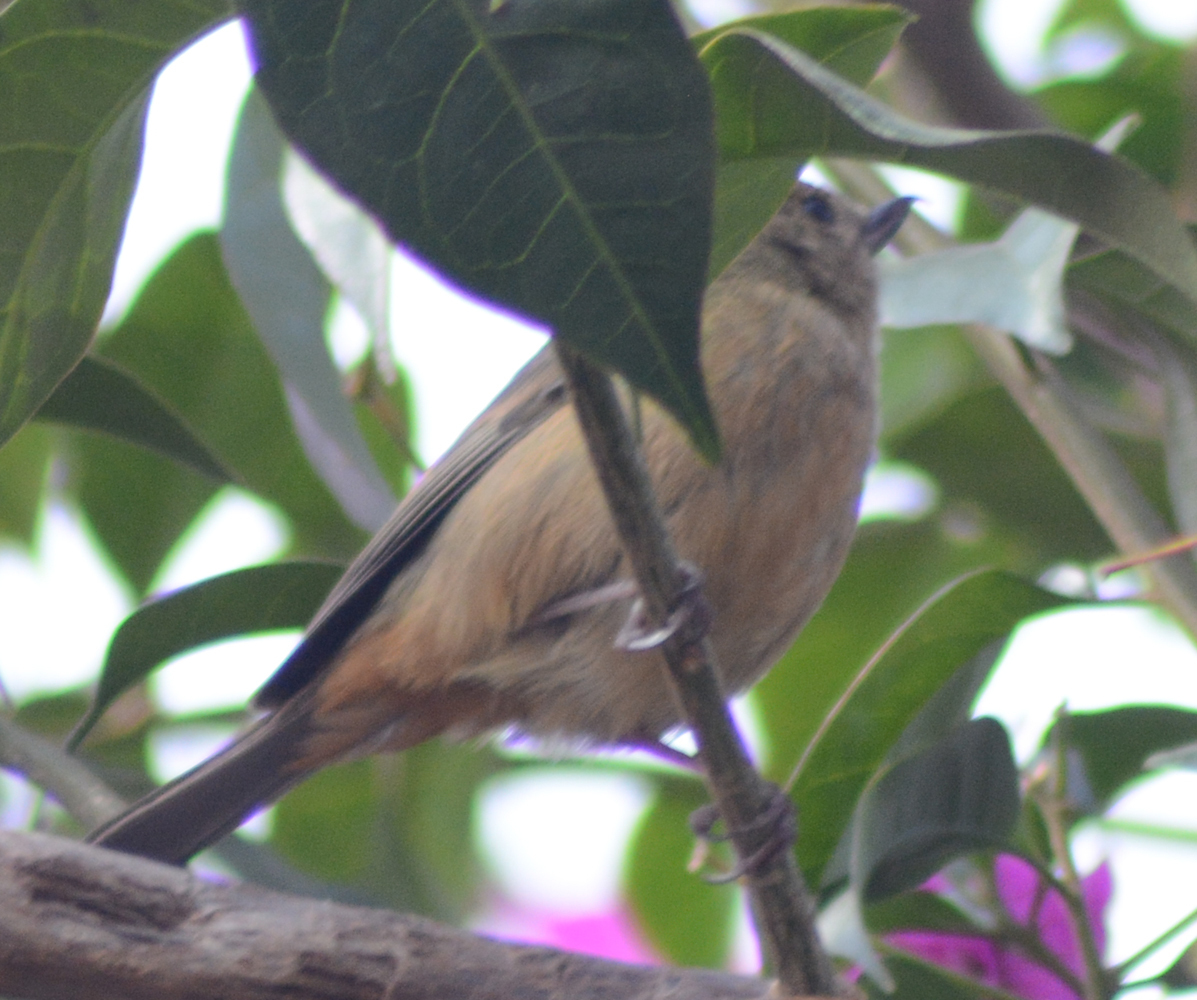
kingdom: Animalia
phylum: Chordata
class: Aves
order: Passeriformes
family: Thraupidae
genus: Diglossa
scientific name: Diglossa baritula
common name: Cinnamon-bellied flowerpiercer
